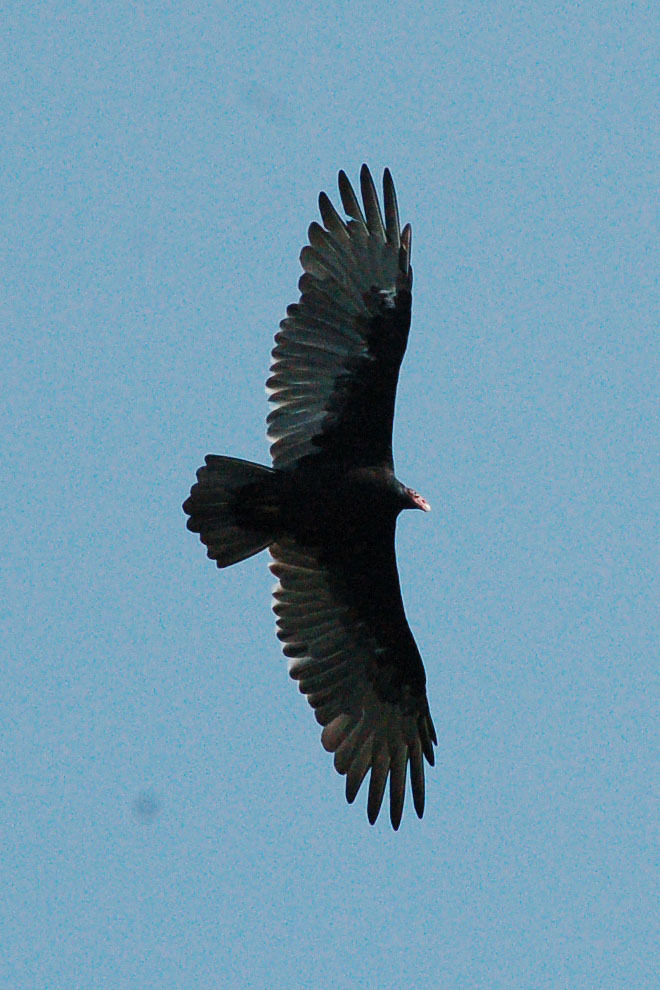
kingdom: Animalia
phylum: Chordata
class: Aves
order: Accipitriformes
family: Cathartidae
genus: Cathartes
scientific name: Cathartes aura
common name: Turkey vulture
